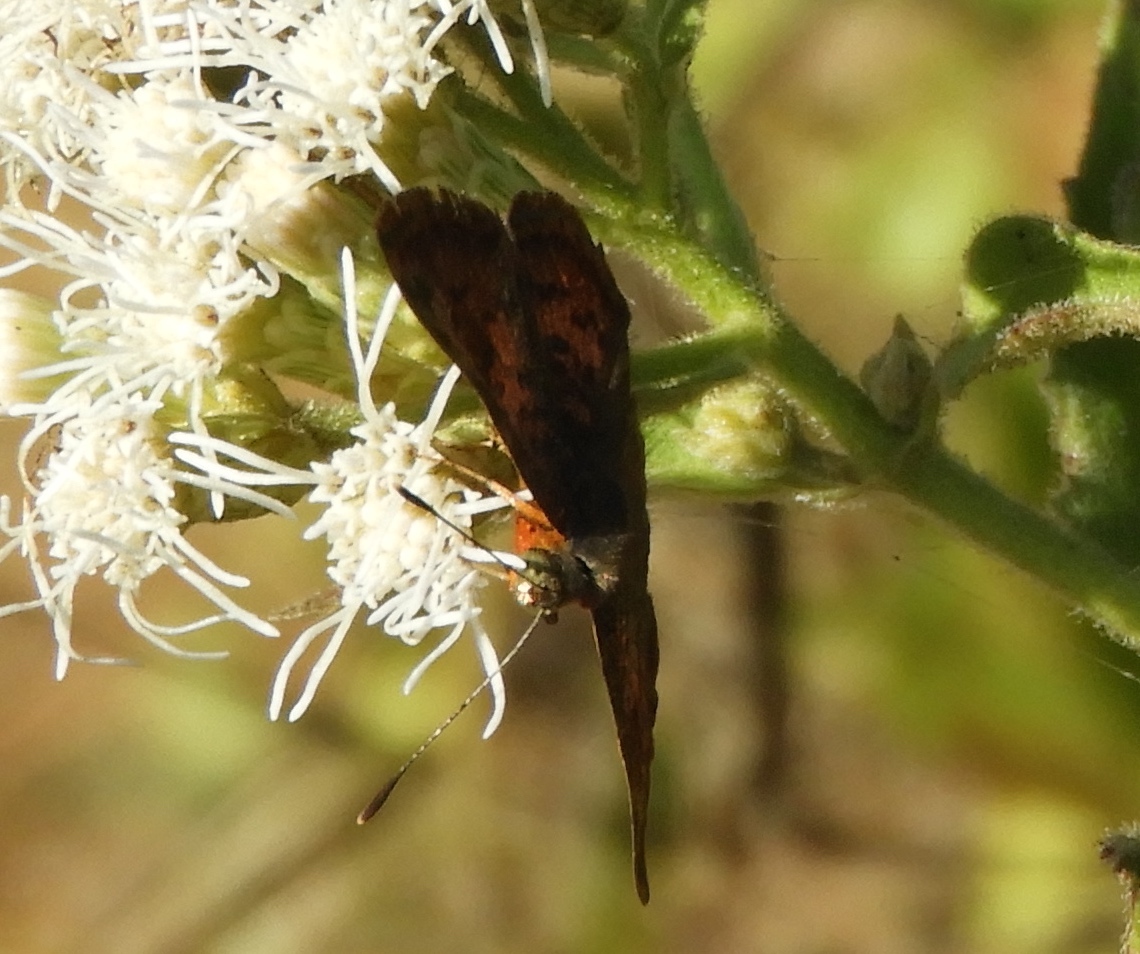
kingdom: Animalia
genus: Caria
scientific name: Caria ino
